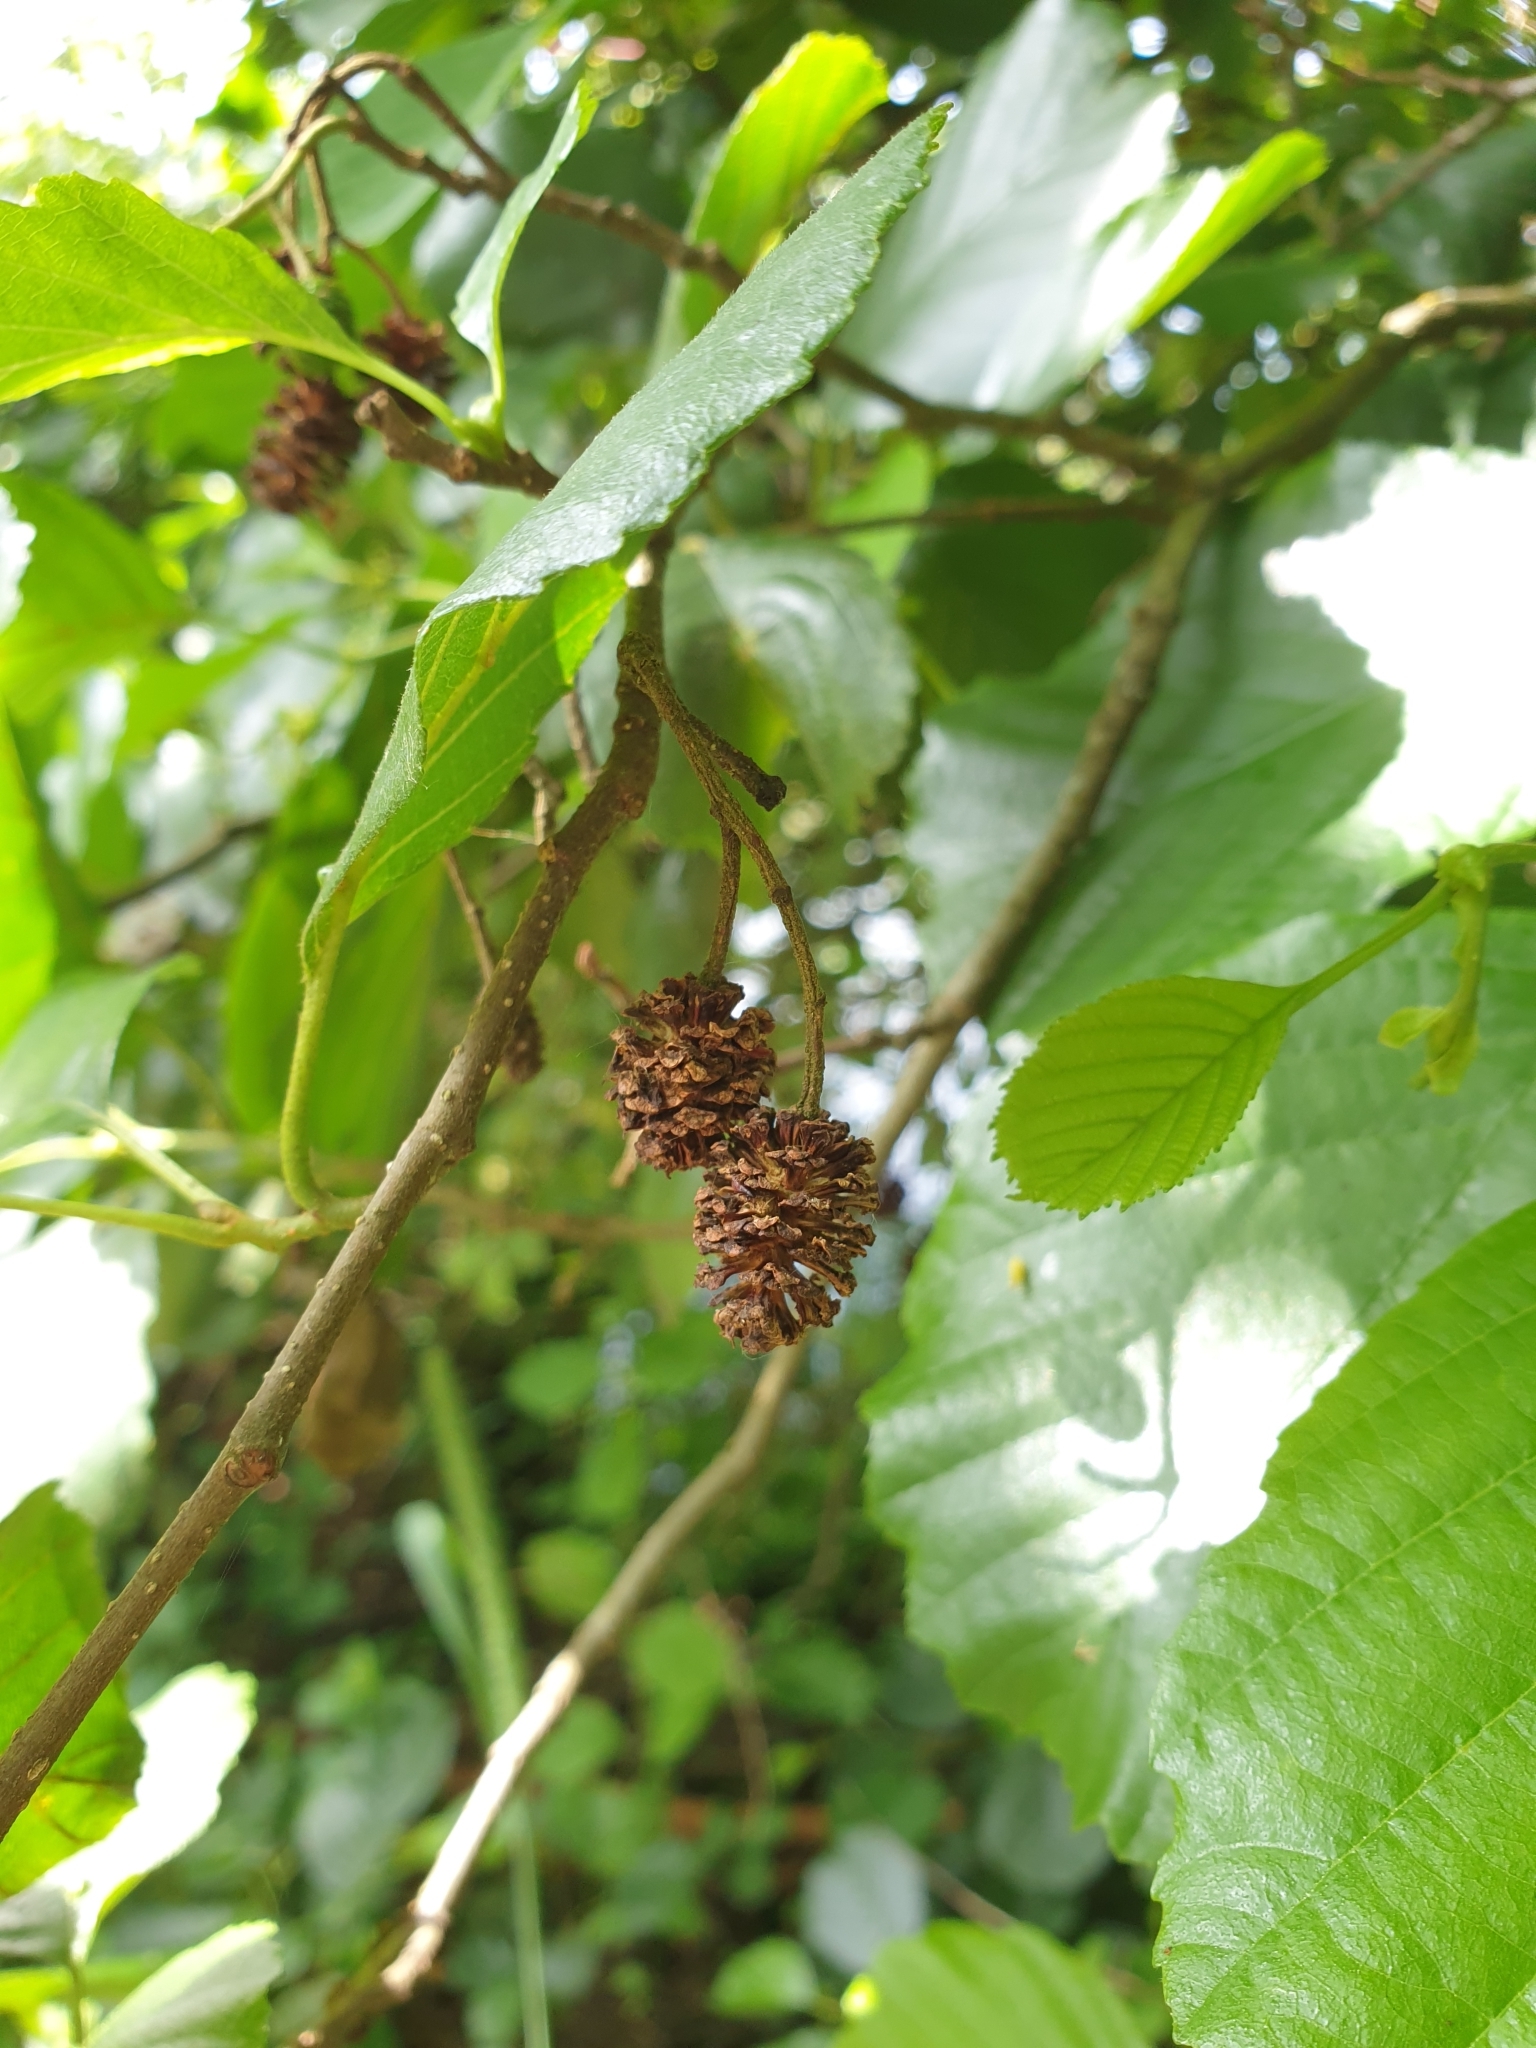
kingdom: Plantae
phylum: Tracheophyta
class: Magnoliopsida
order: Fagales
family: Betulaceae
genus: Alnus
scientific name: Alnus glutinosa
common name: Black alder
